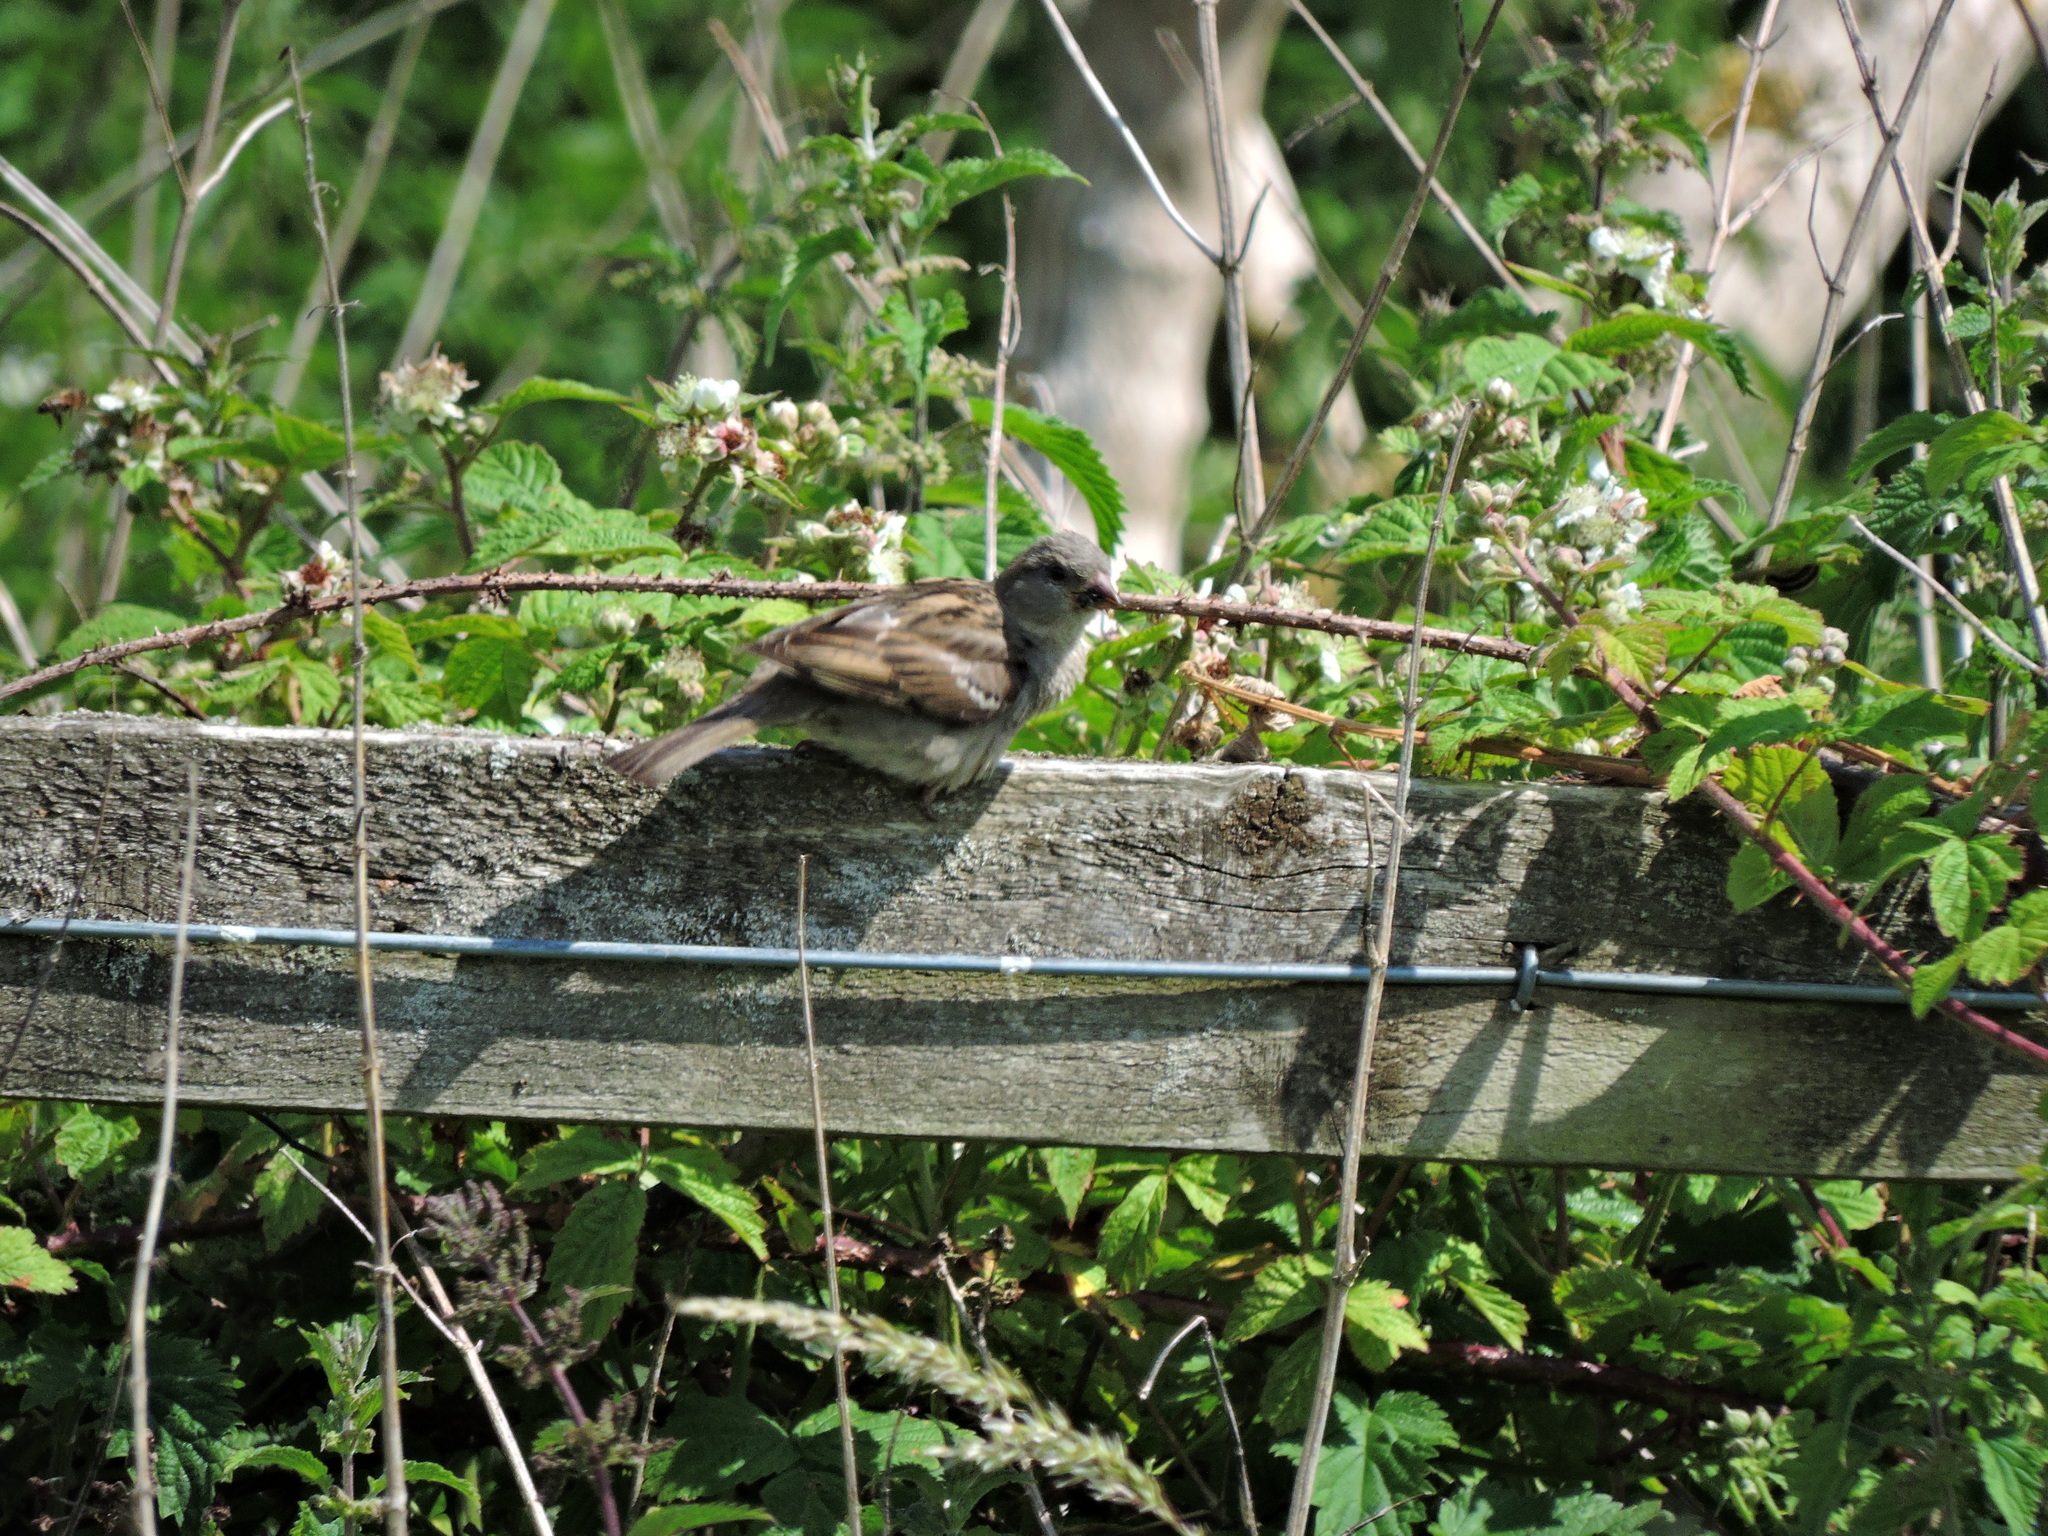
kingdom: Animalia
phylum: Chordata
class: Aves
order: Passeriformes
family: Passeridae
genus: Passer
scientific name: Passer domesticus
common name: House sparrow
